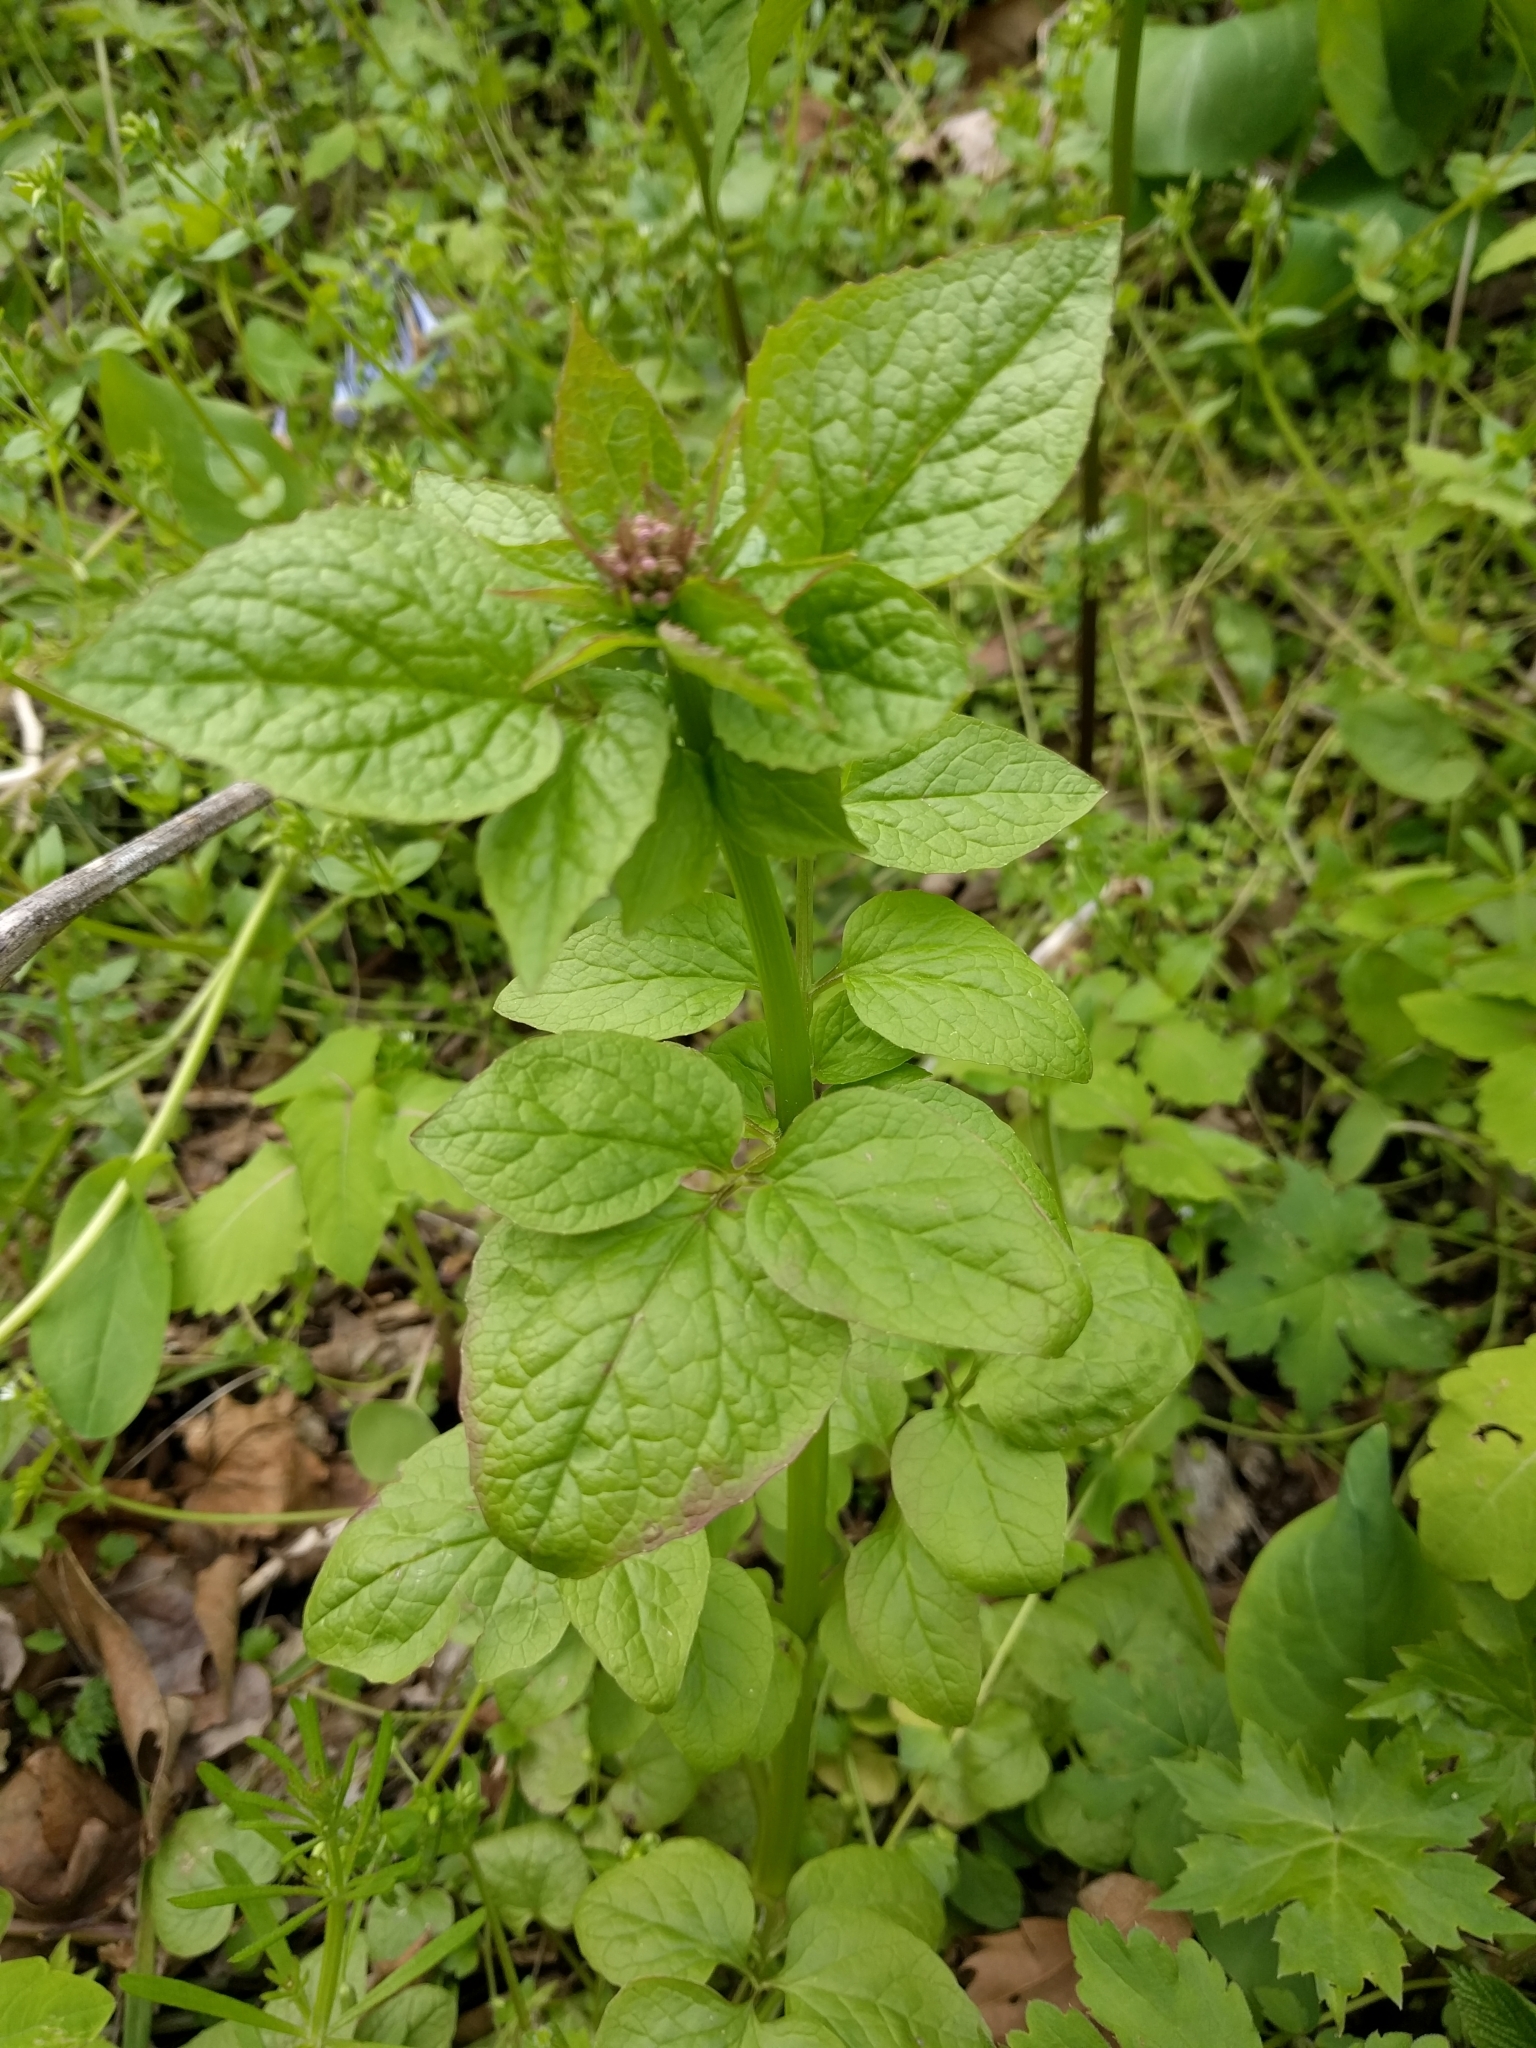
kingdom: Plantae
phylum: Tracheophyta
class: Magnoliopsida
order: Dipsacales
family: Caprifoliaceae
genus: Valeriana
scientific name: Valeriana pauciflora
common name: Long-tube valeriana
